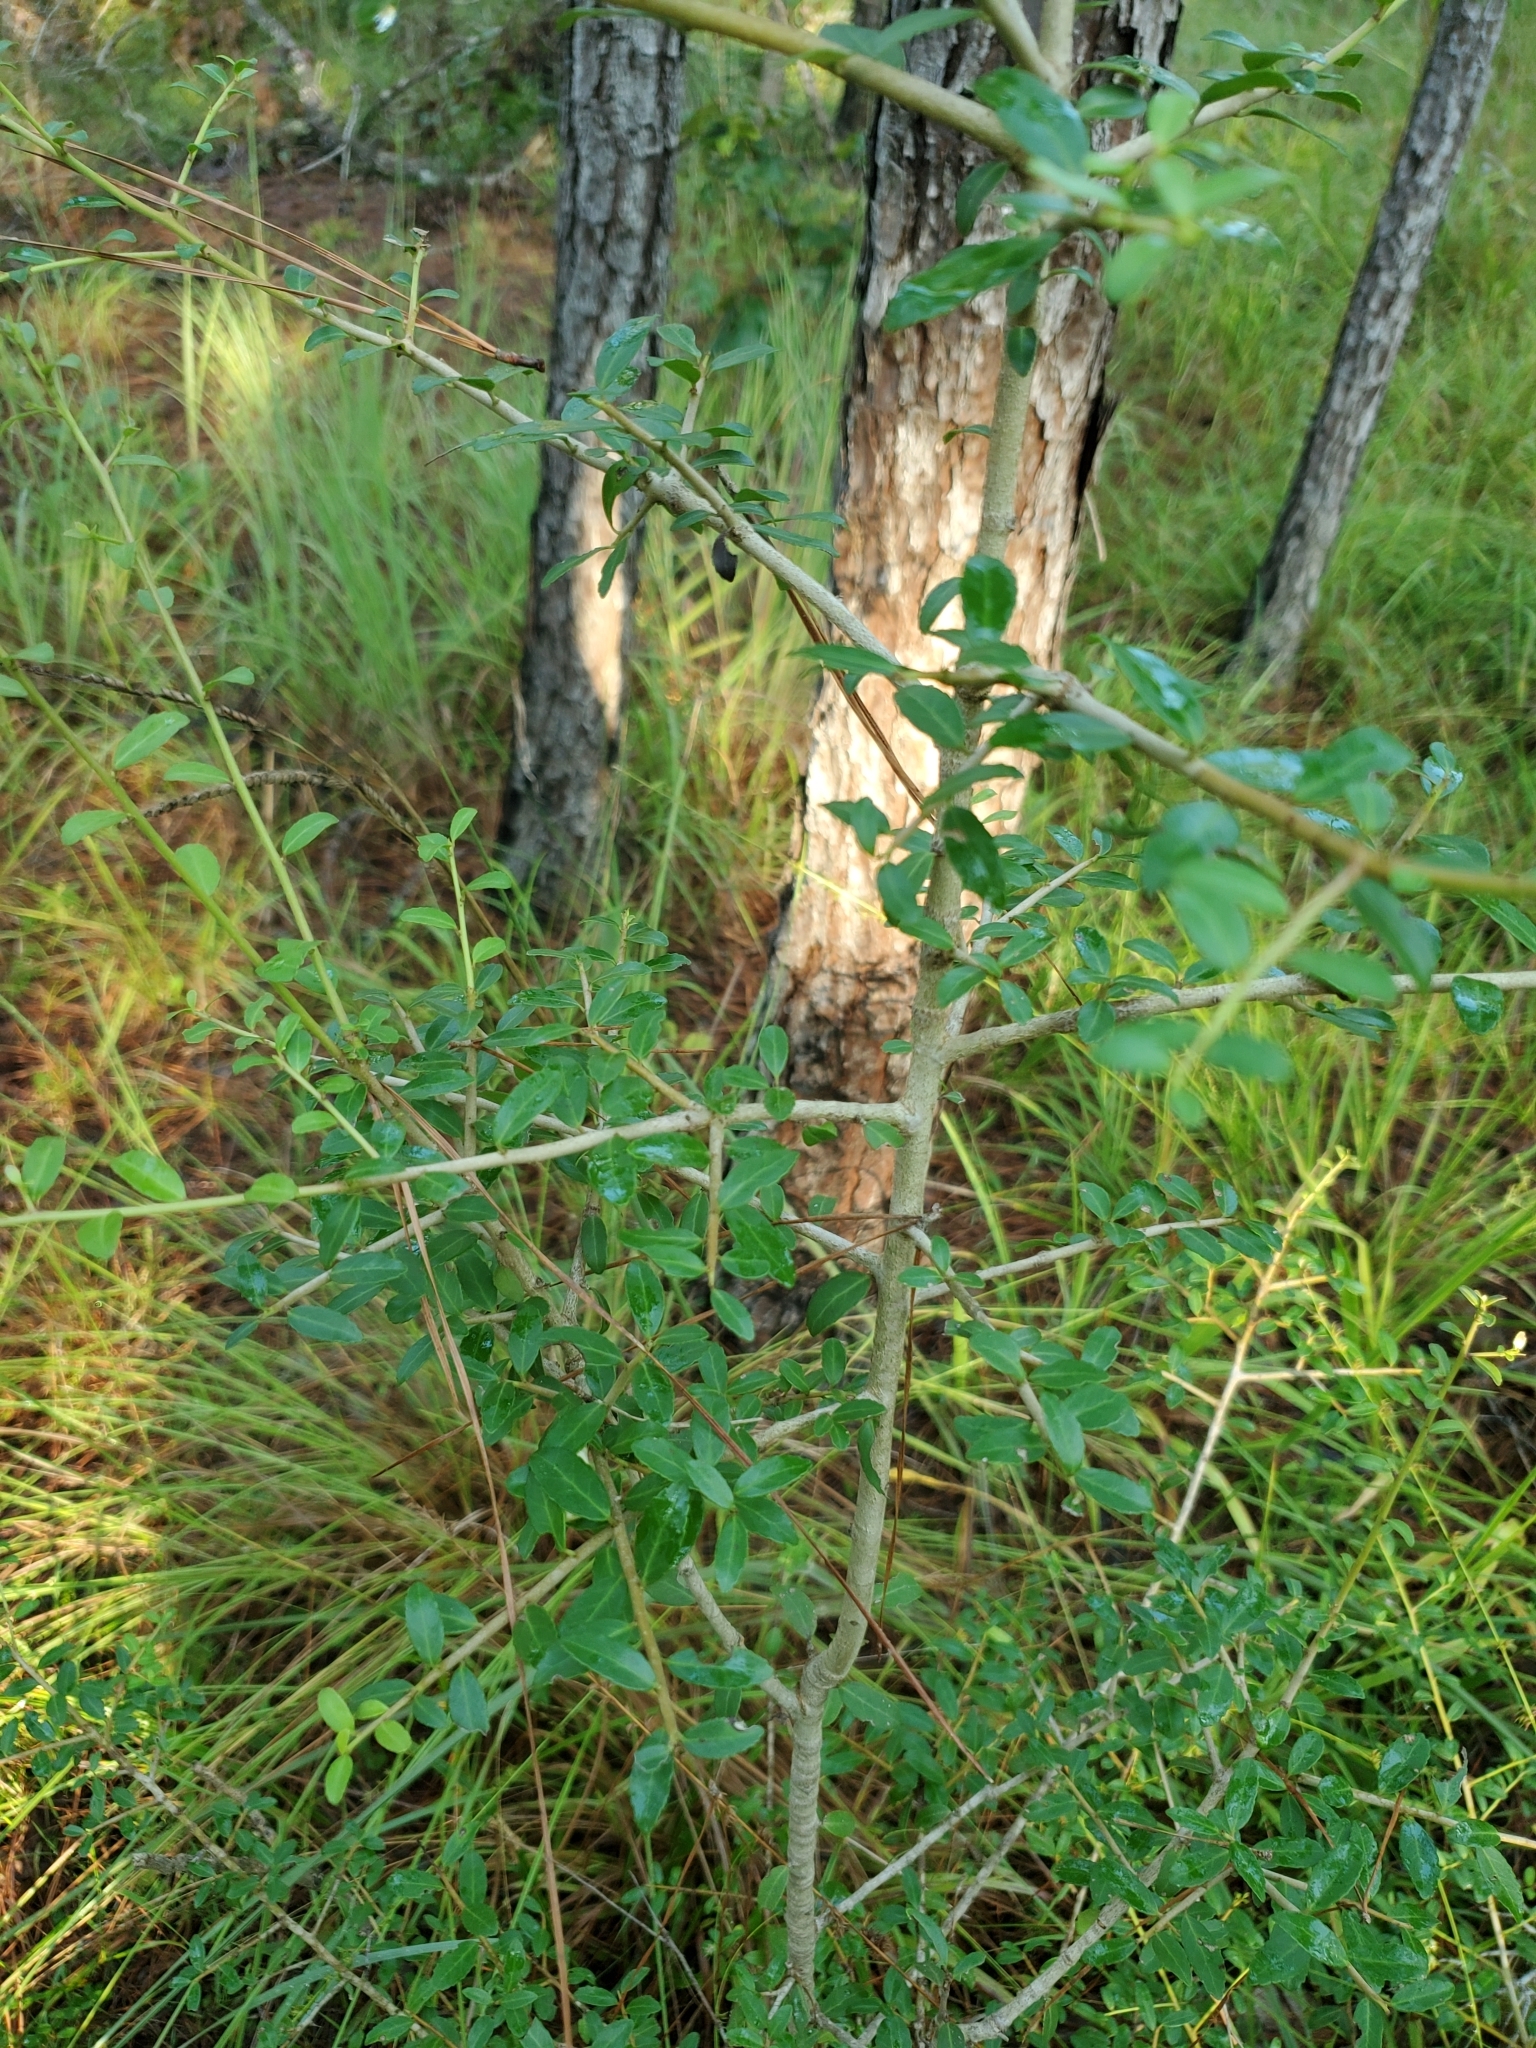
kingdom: Plantae
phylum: Tracheophyta
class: Magnoliopsida
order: Aquifoliales
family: Aquifoliaceae
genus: Ilex
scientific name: Ilex vomitoria
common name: Yaupon holly
